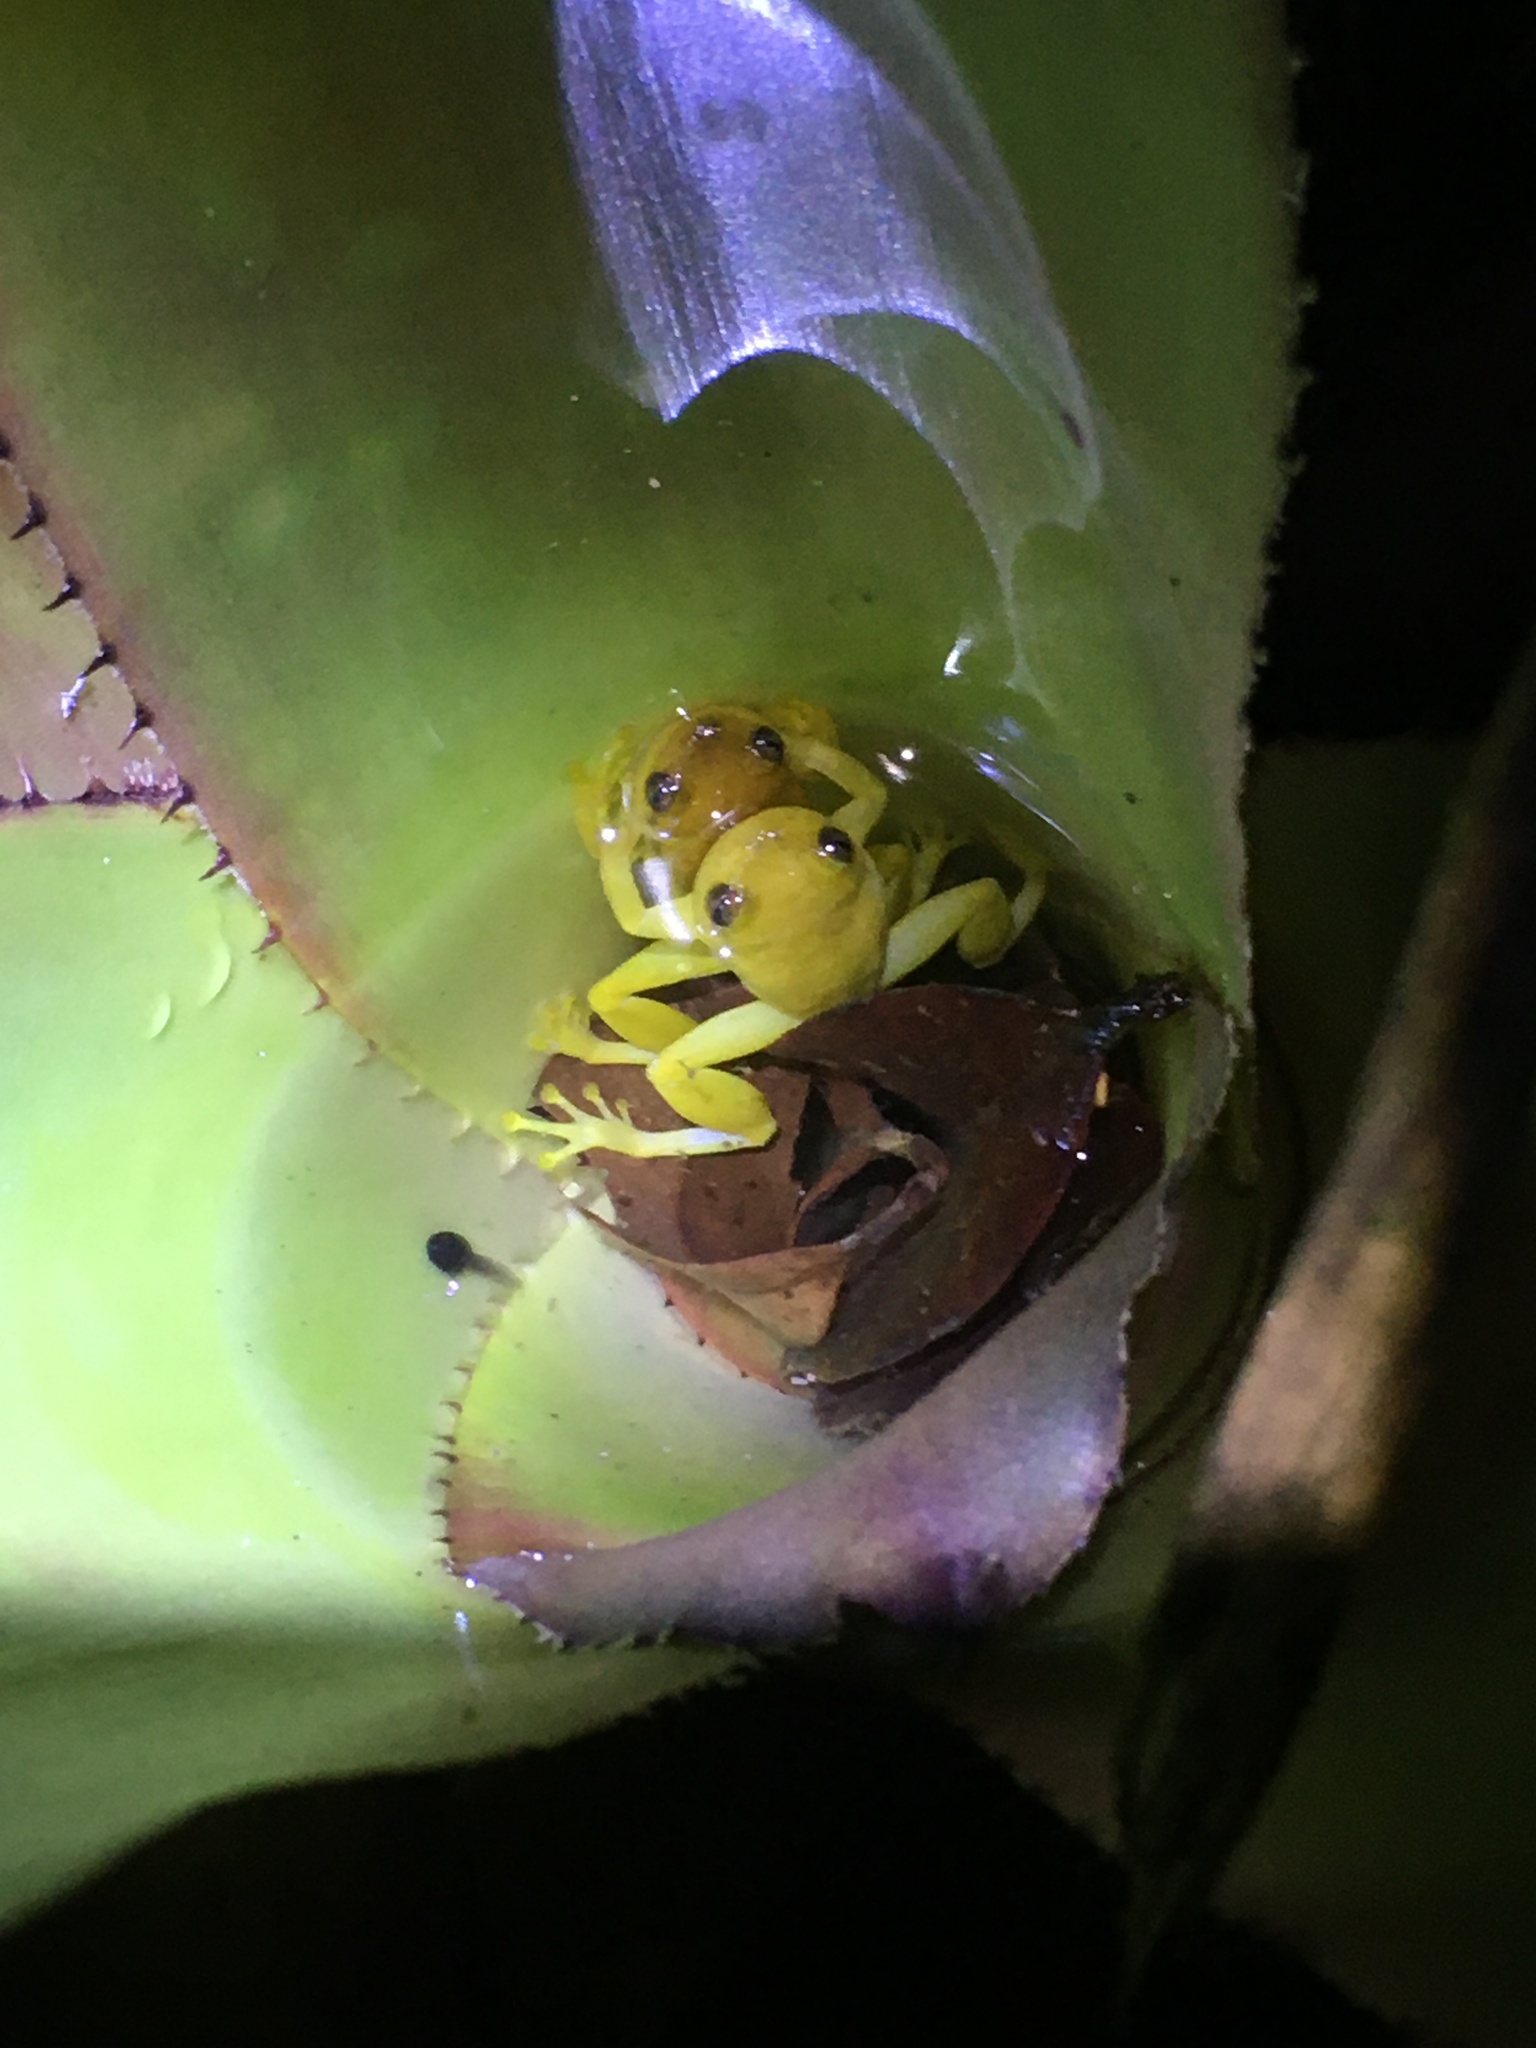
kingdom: Animalia
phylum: Chordata
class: Amphibia
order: Anura
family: Hylidae
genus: Phyllodytes
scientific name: Phyllodytes edelmoi
